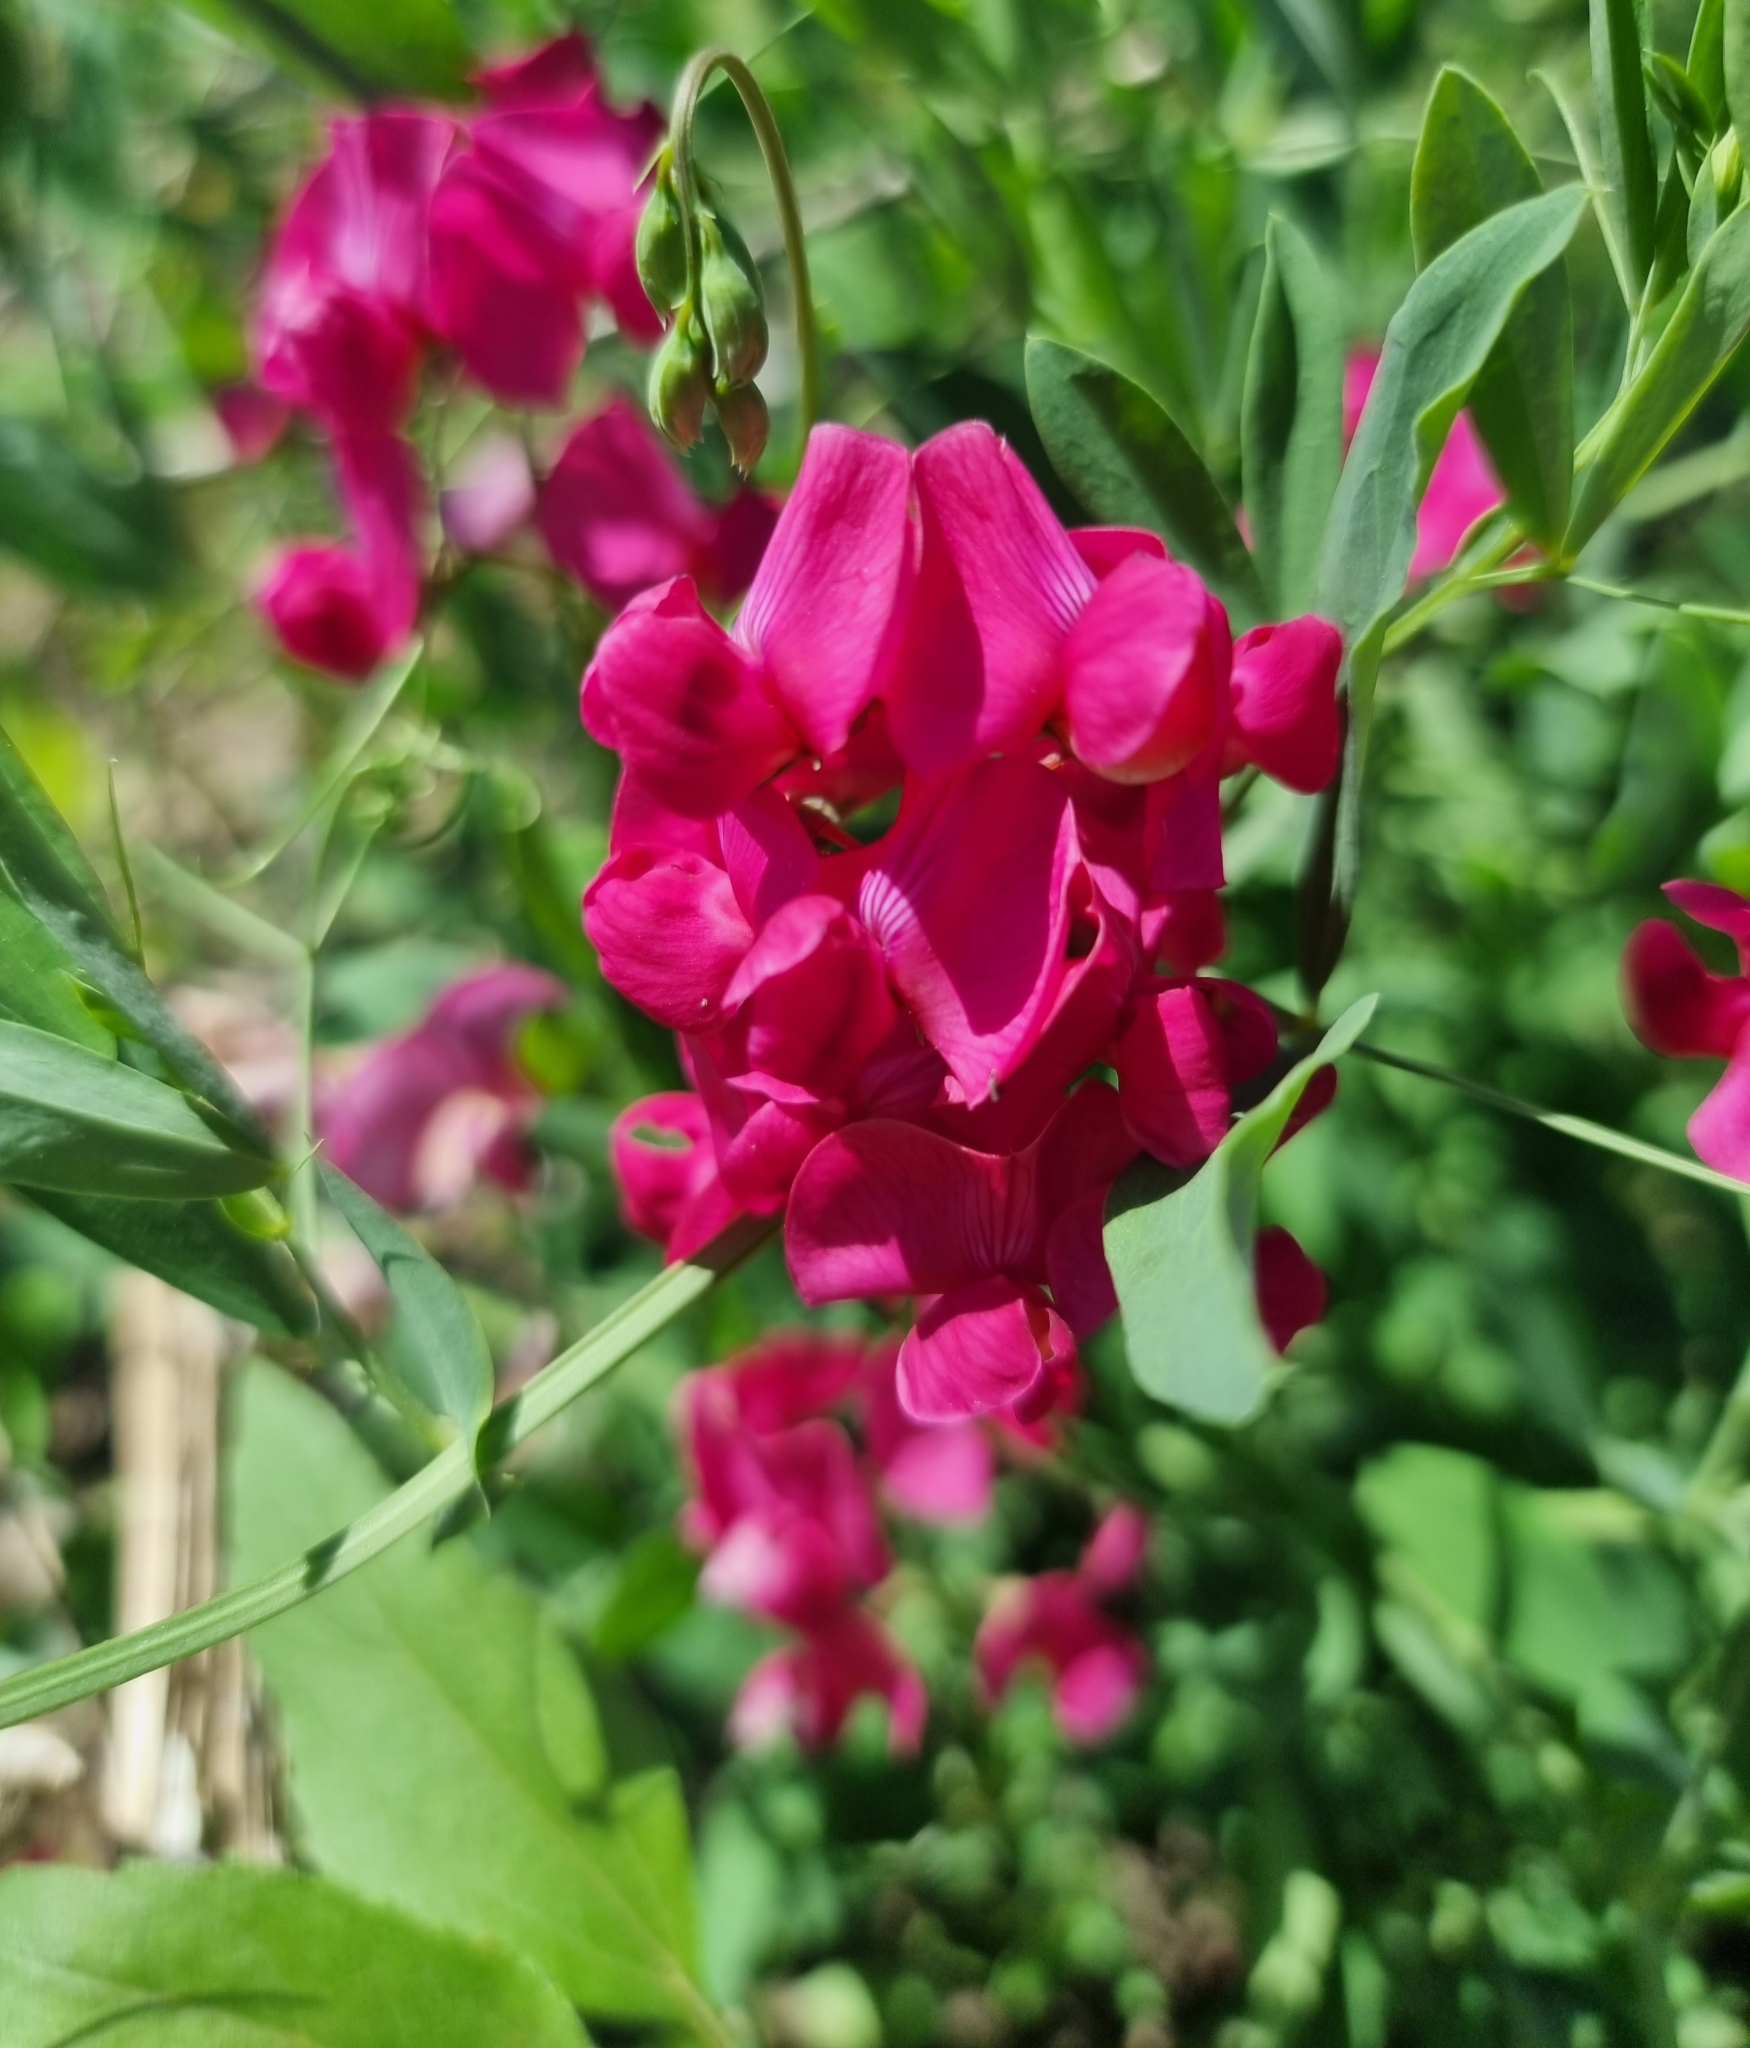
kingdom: Plantae
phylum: Tracheophyta
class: Magnoliopsida
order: Fabales
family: Fabaceae
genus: Lathyrus
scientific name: Lathyrus tuberosus
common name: Tuberous pea
